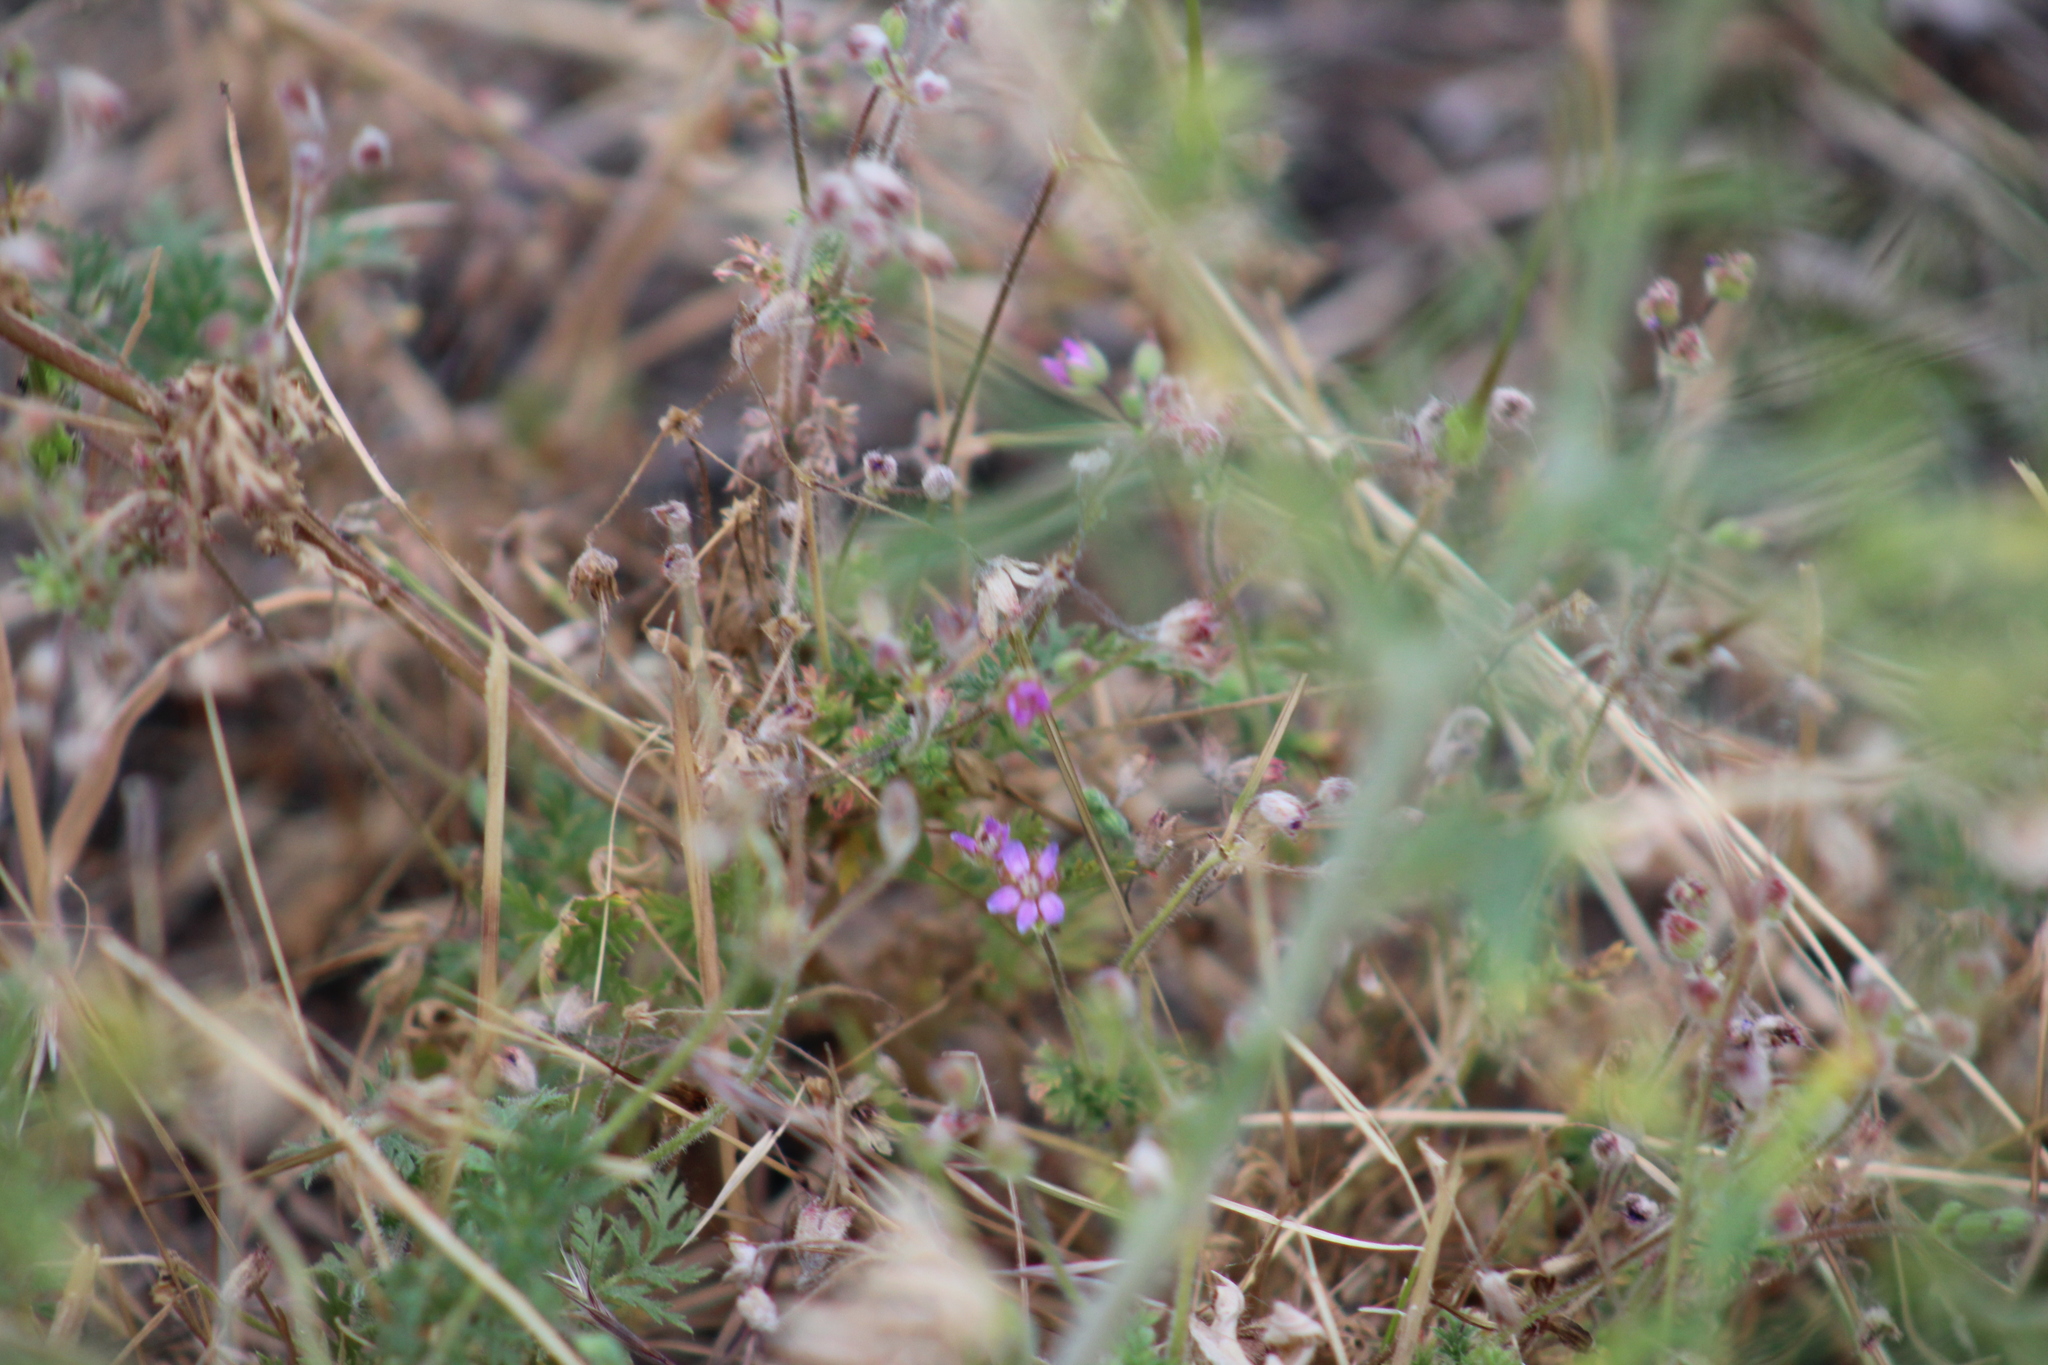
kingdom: Plantae
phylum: Tracheophyta
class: Magnoliopsida
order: Geraniales
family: Geraniaceae
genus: Erodium
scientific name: Erodium cicutarium
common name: Common stork's-bill
